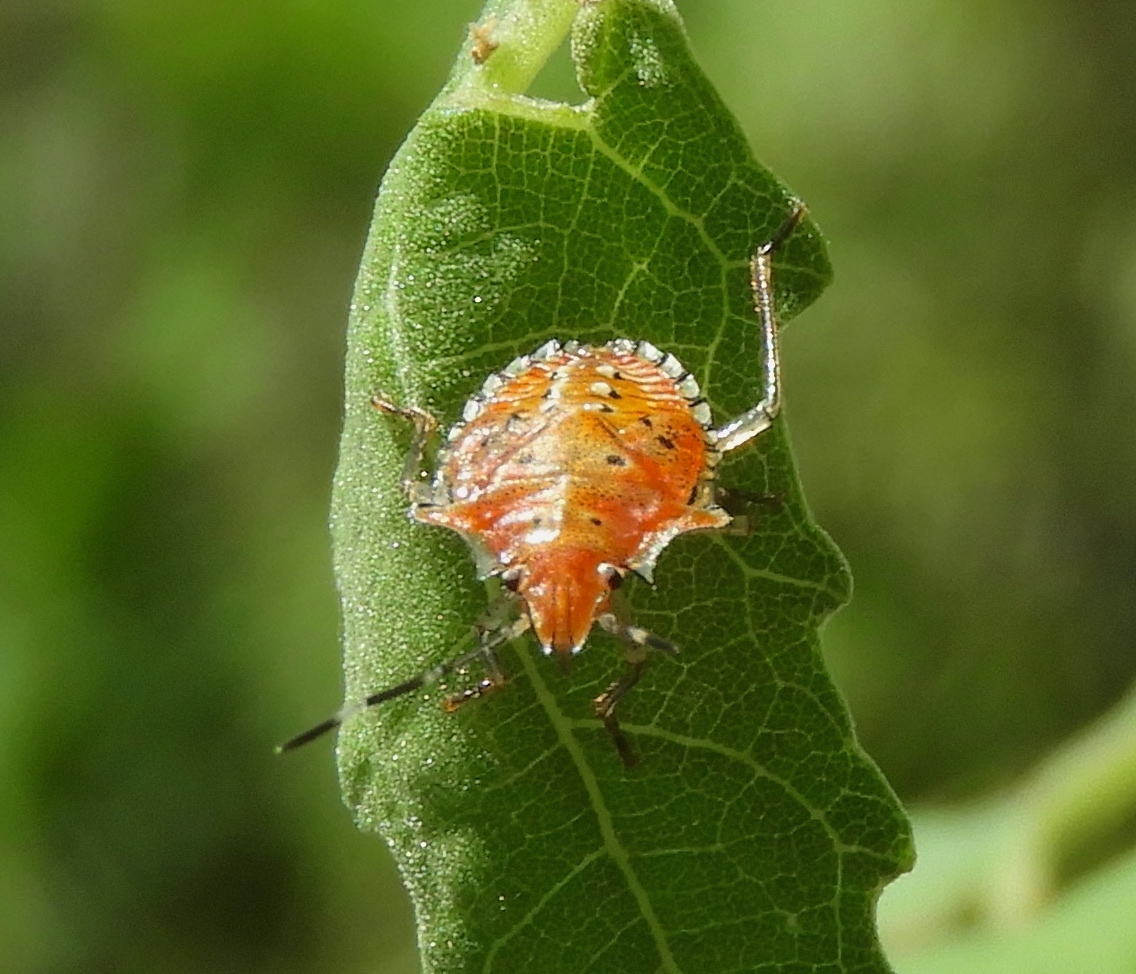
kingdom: Animalia
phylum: Arthropoda
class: Insecta
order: Hemiptera
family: Pentatomidae
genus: Arvelius
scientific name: Arvelius
